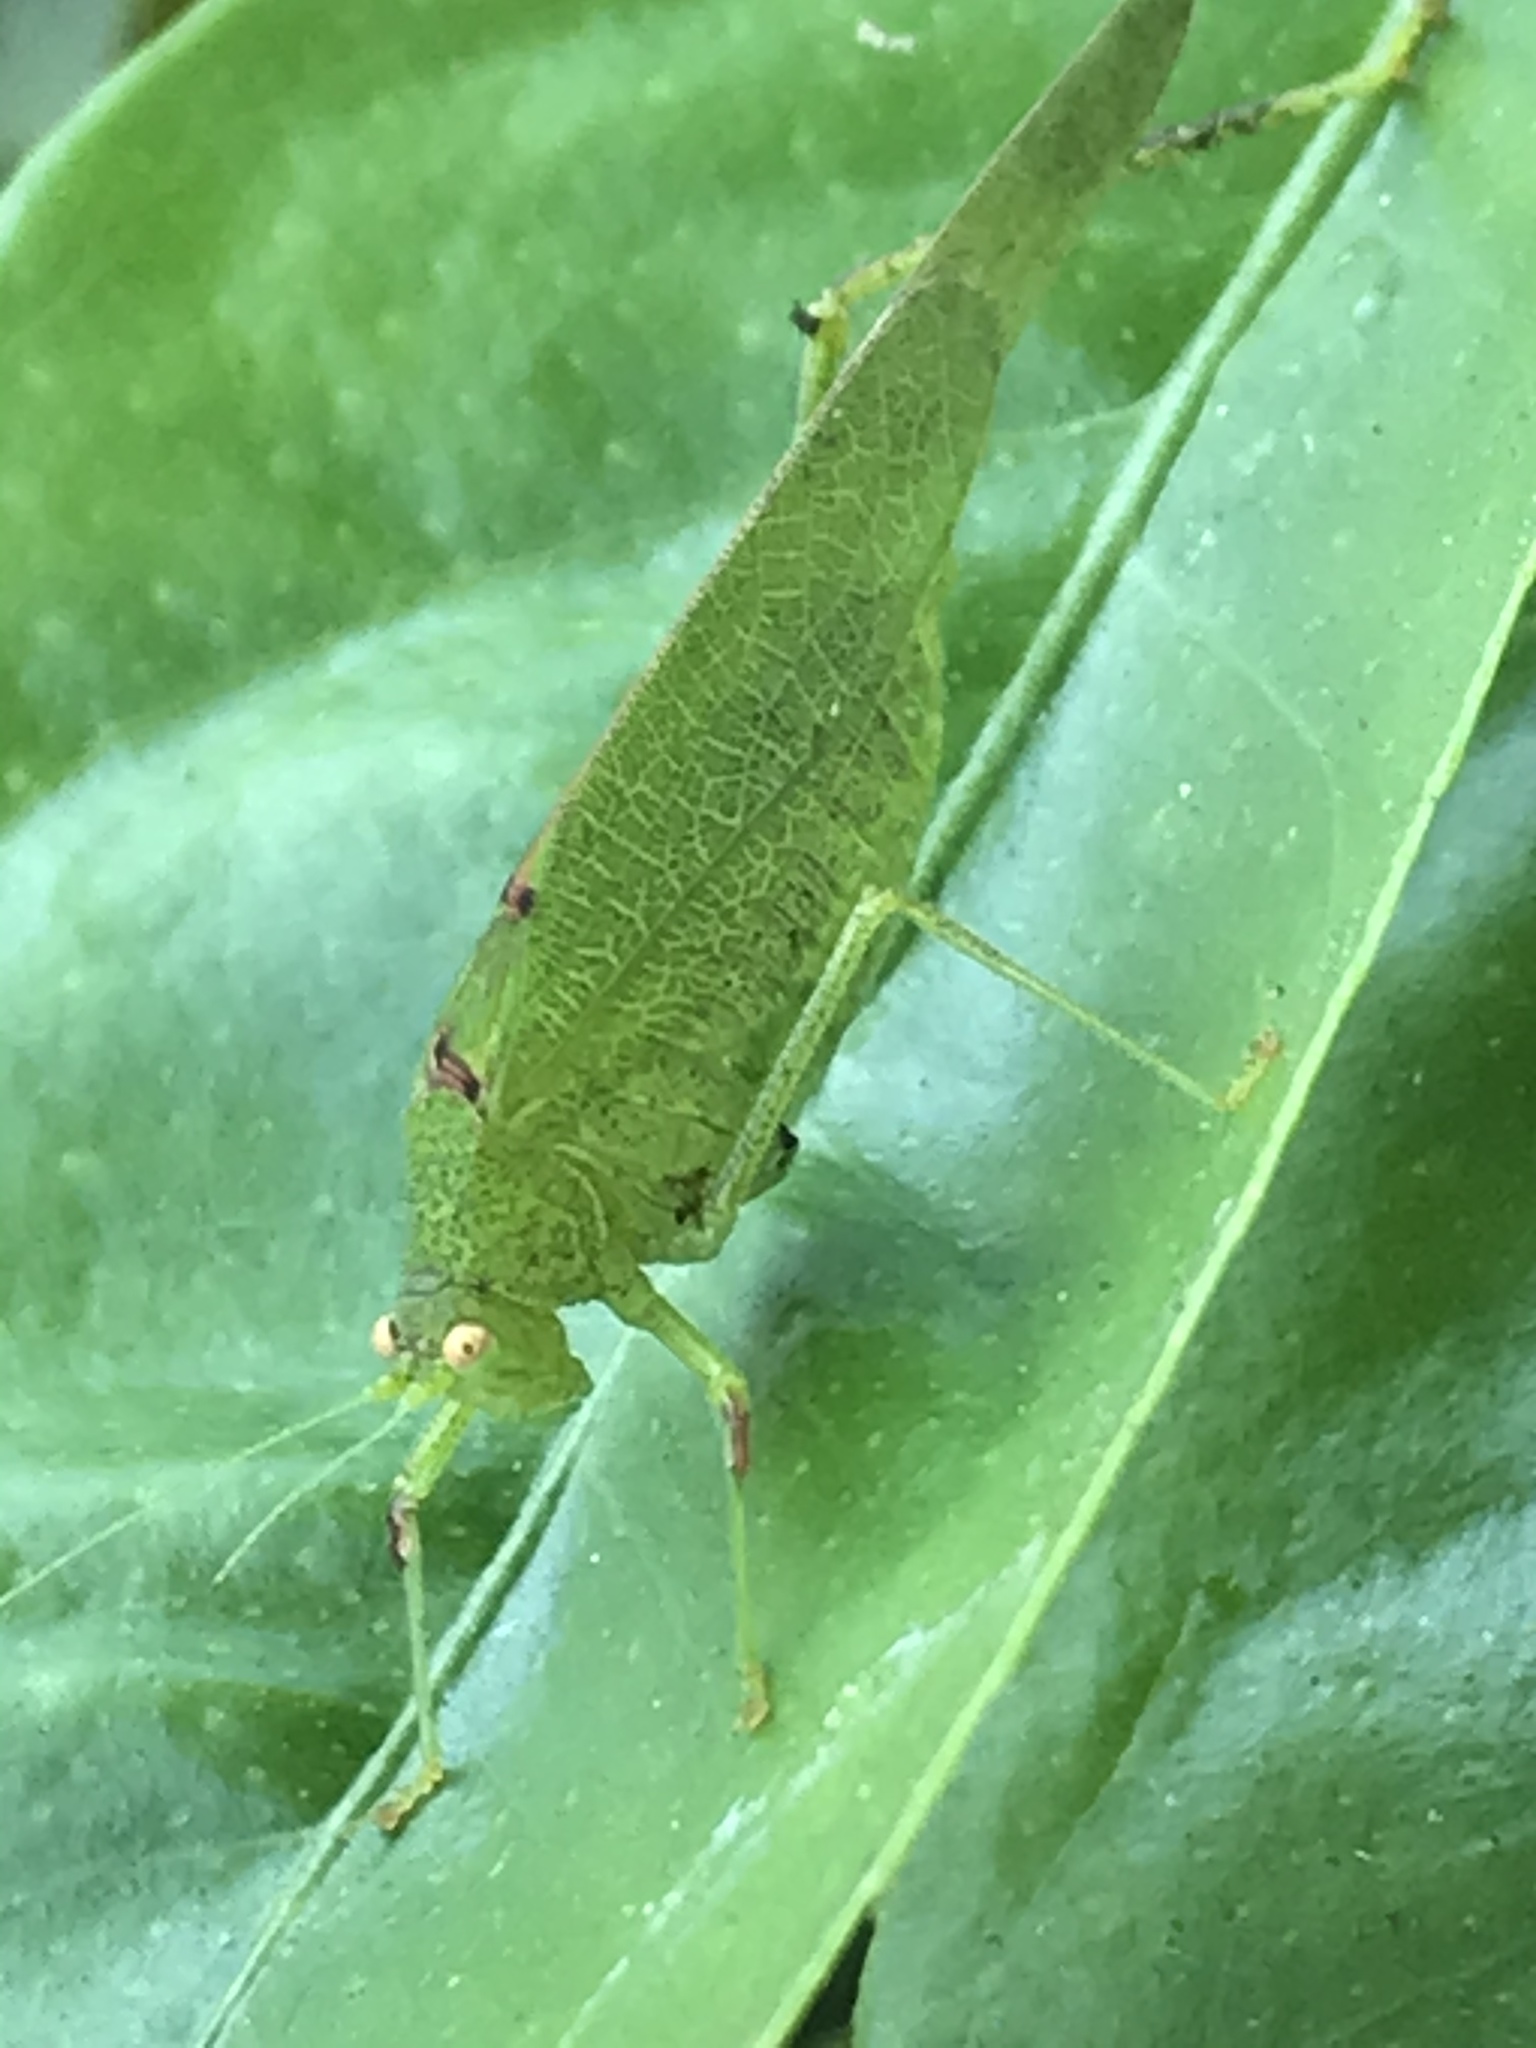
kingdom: Animalia
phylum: Arthropoda
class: Insecta
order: Orthoptera
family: Tettigoniidae
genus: Phaneroptera
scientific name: Phaneroptera nana
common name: Southern sickle bush-cricket
